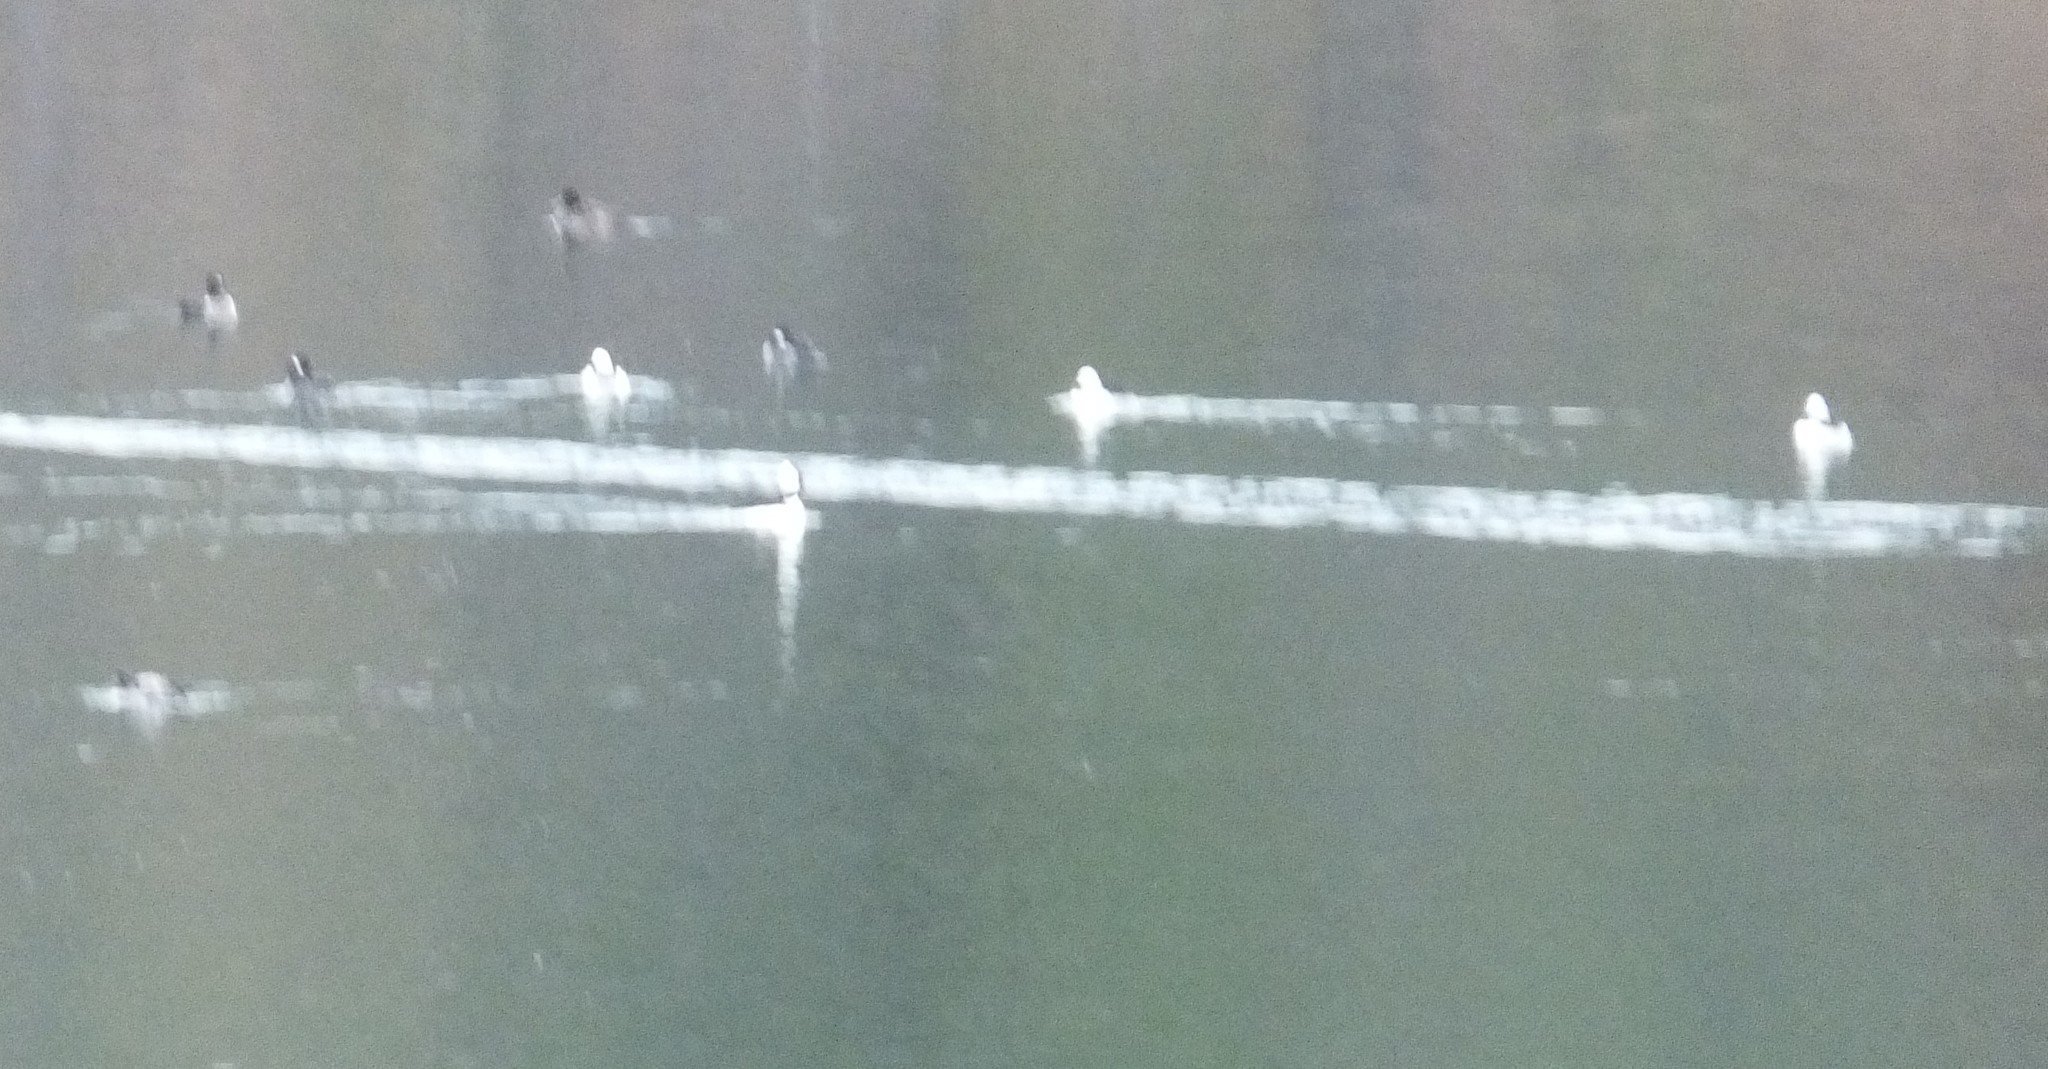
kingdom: Animalia
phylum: Chordata
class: Aves
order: Anseriformes
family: Anatidae
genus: Bucephala
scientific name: Bucephala albeola
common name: Bufflehead
